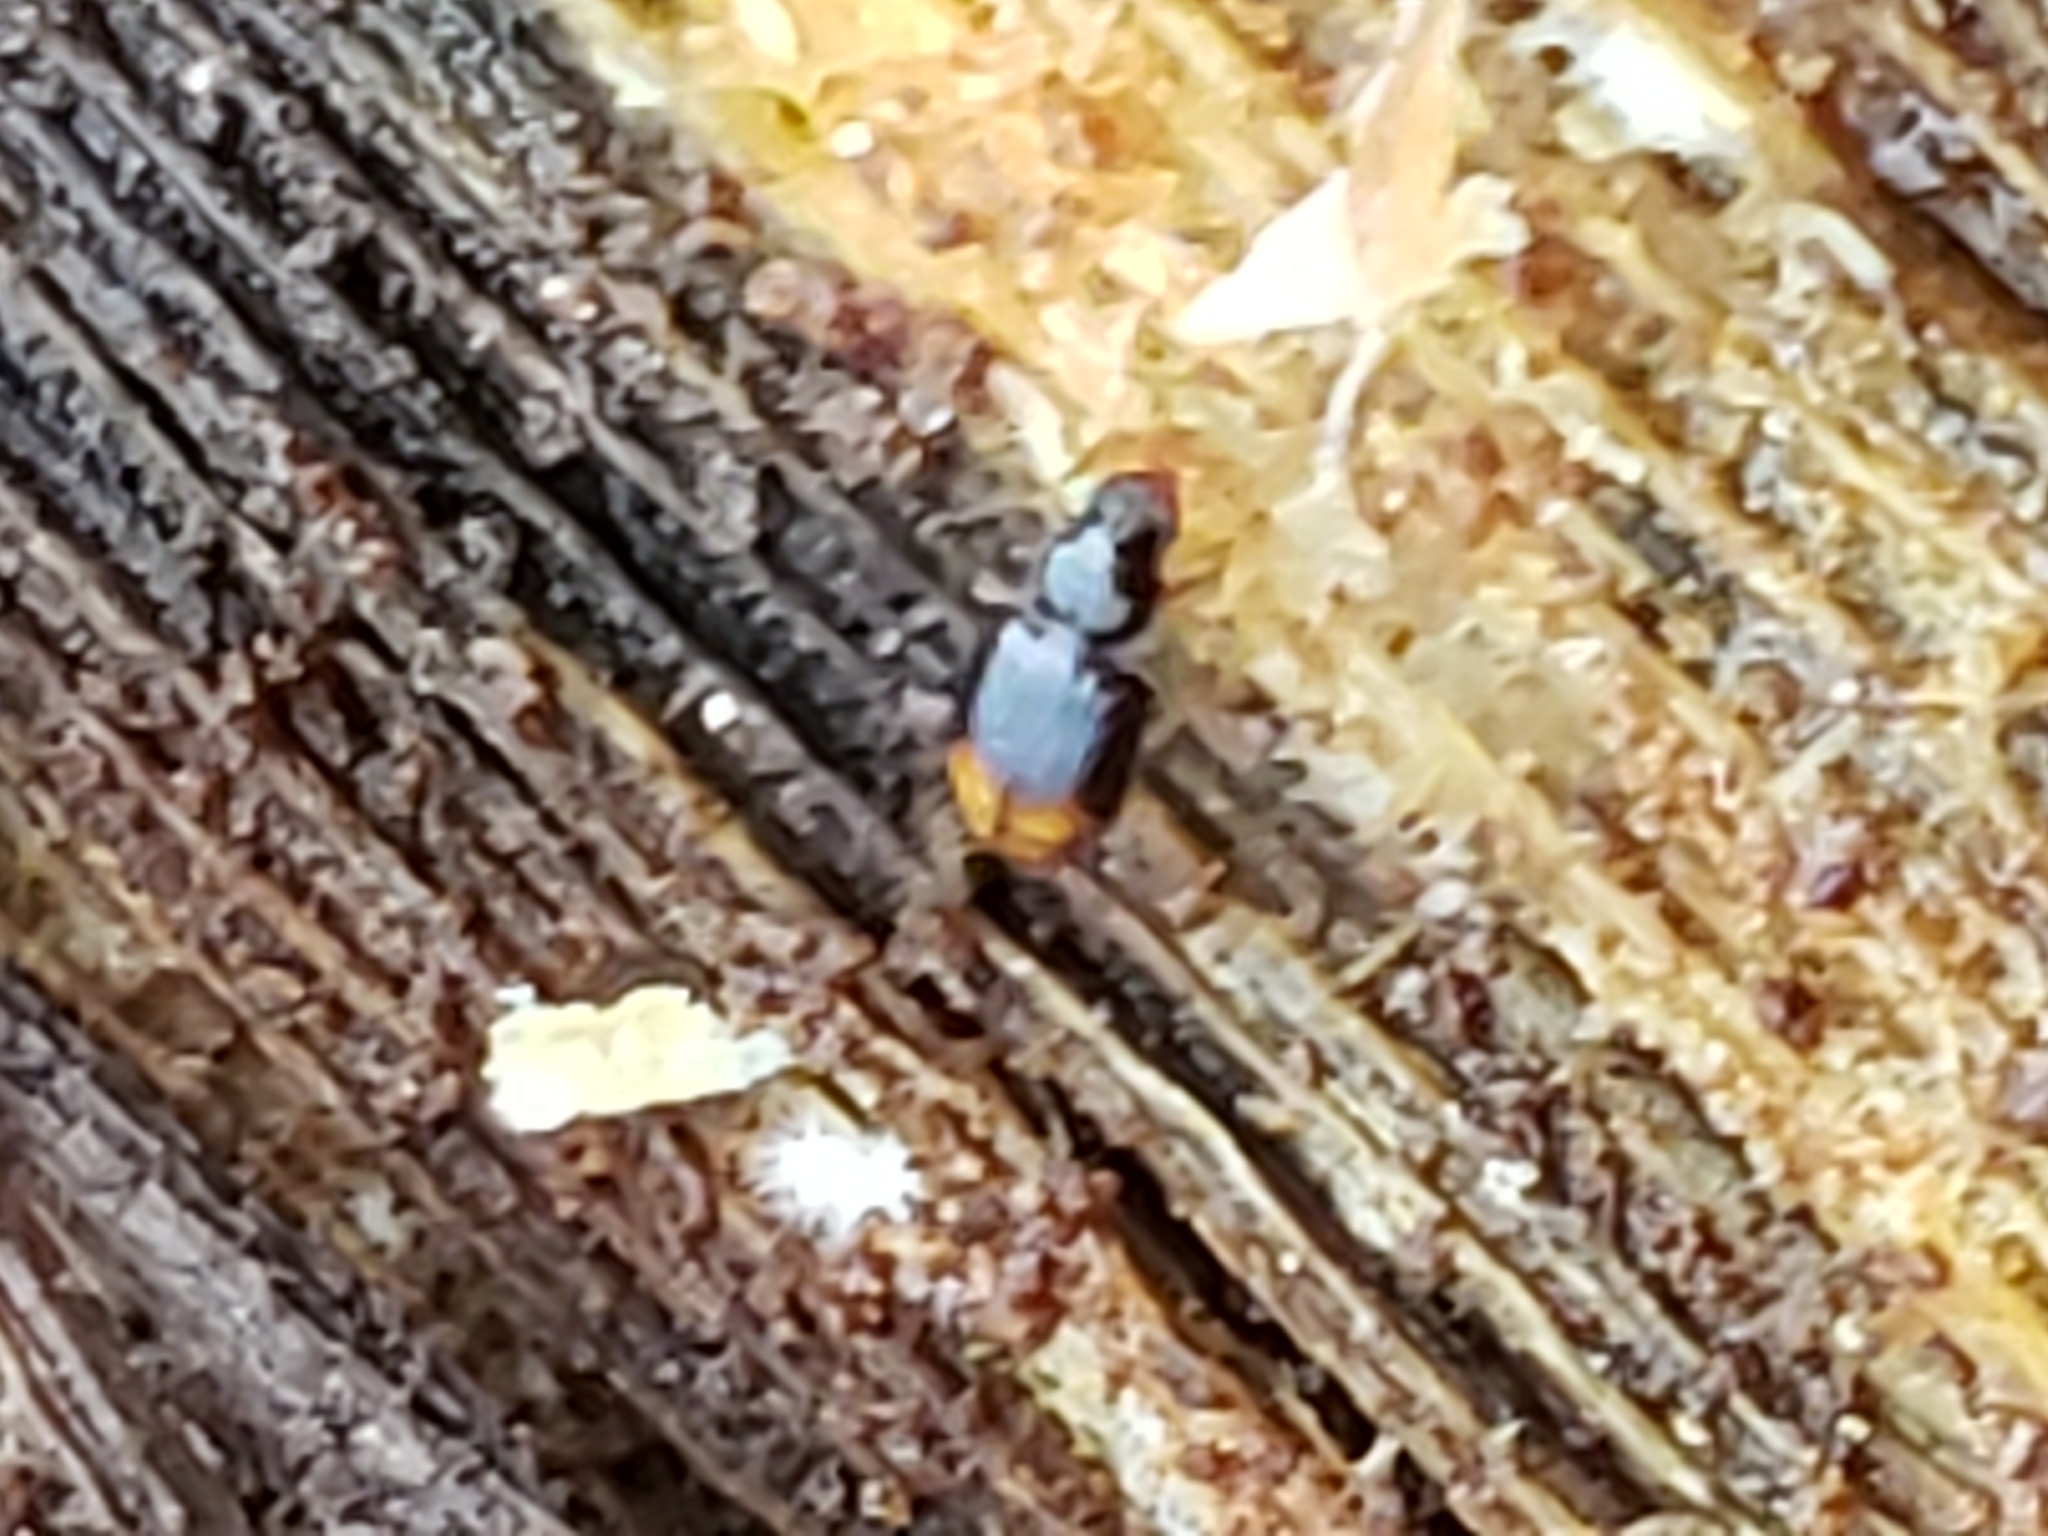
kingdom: Animalia
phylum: Arthropoda
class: Insecta
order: Coleoptera
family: Carabidae
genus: Mioptachys
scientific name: Mioptachys flavicauda
